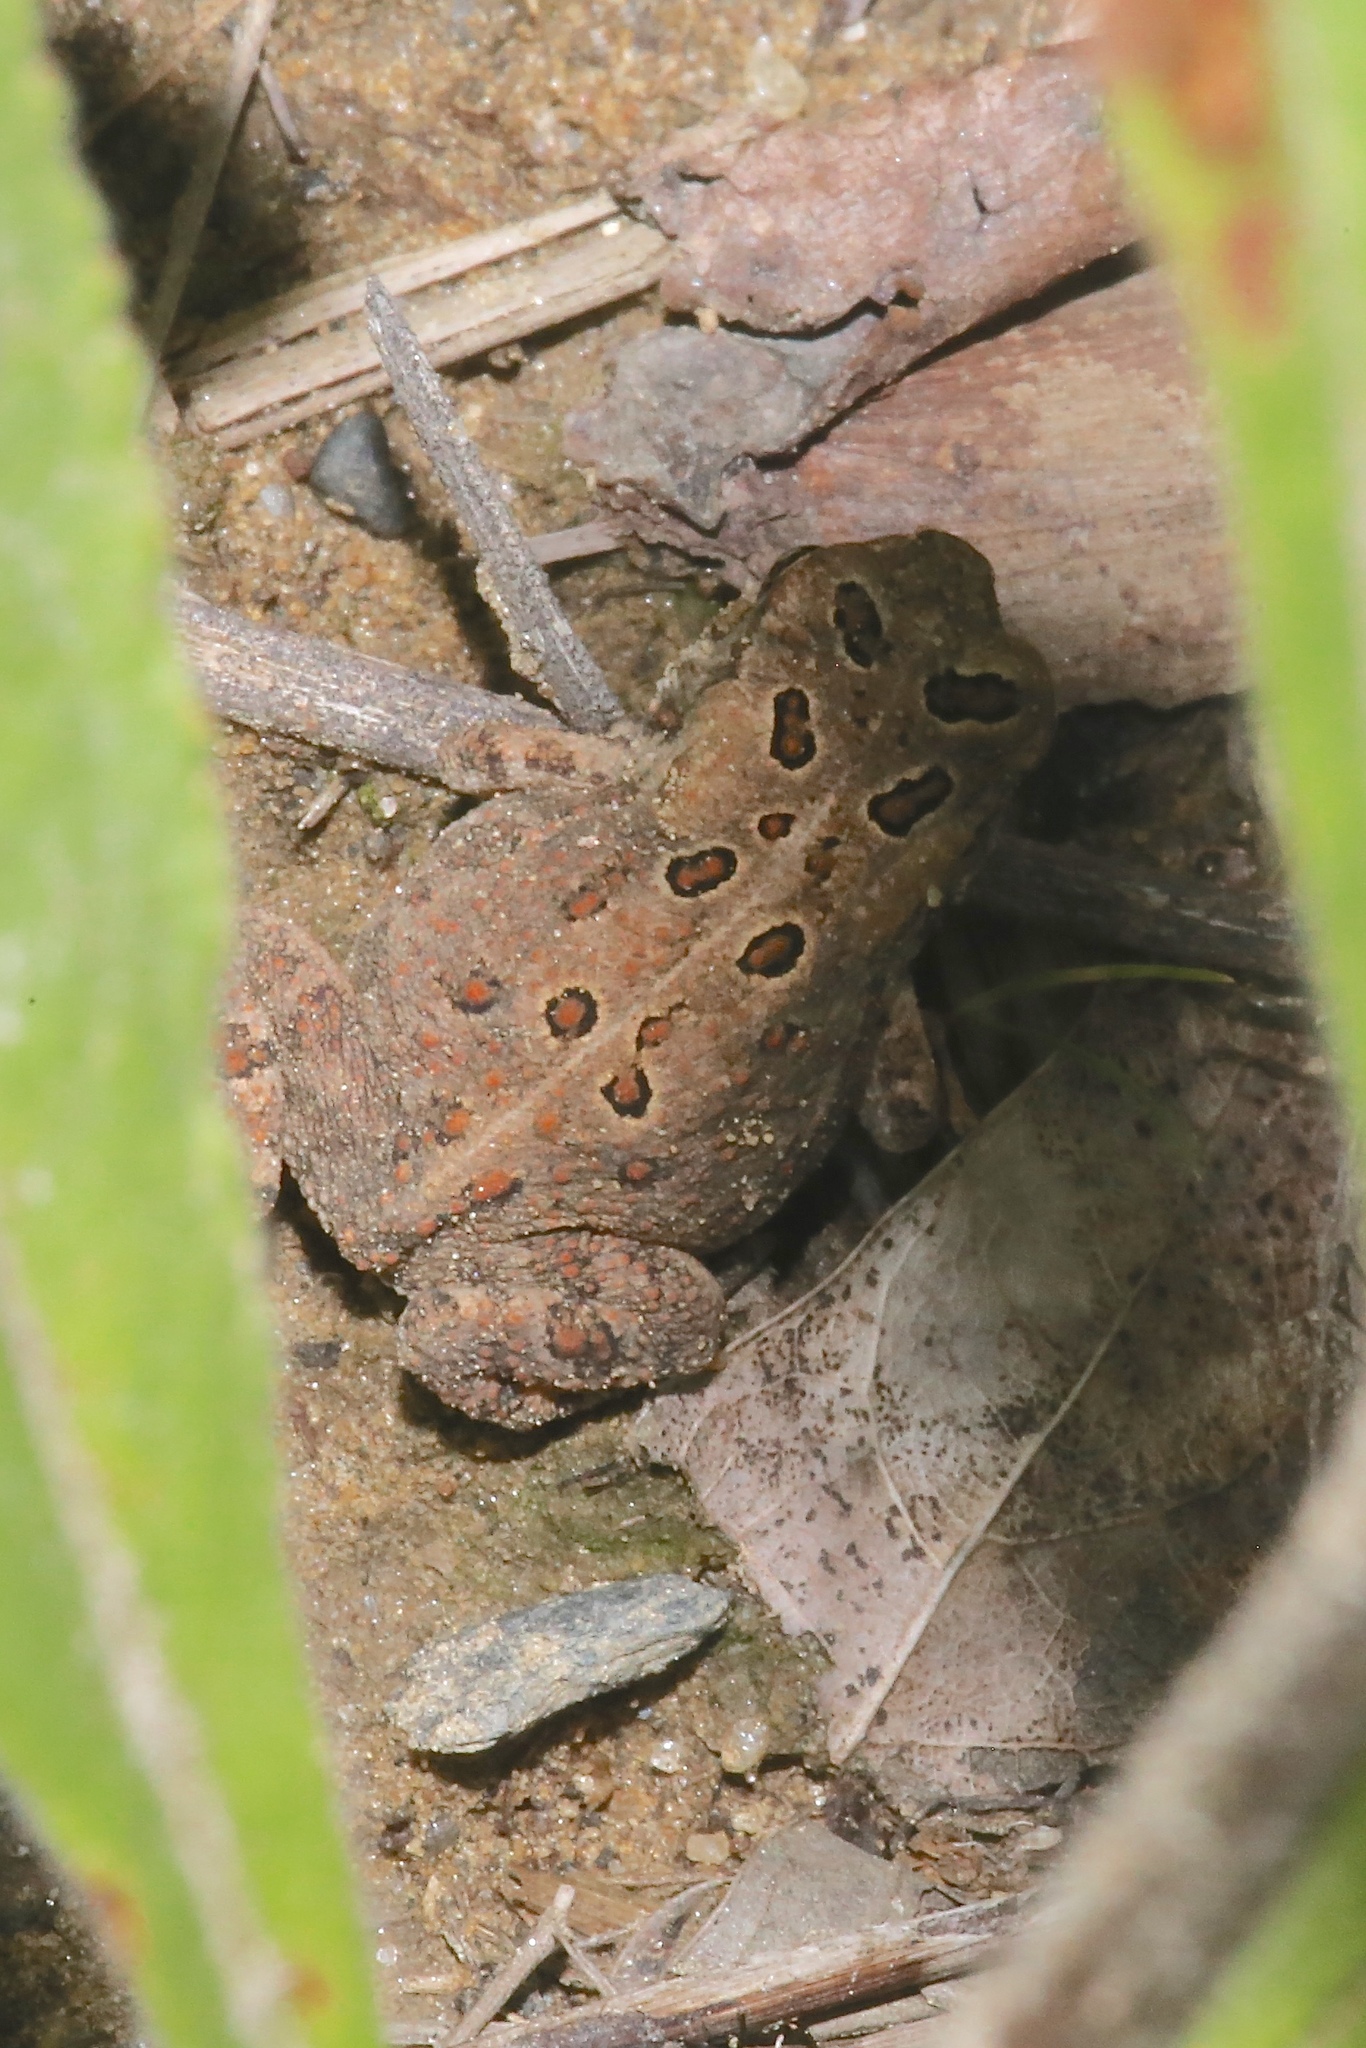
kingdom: Animalia
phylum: Chordata
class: Amphibia
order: Anura
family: Bufonidae
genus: Anaxyrus
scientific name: Anaxyrus americanus
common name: American toad
